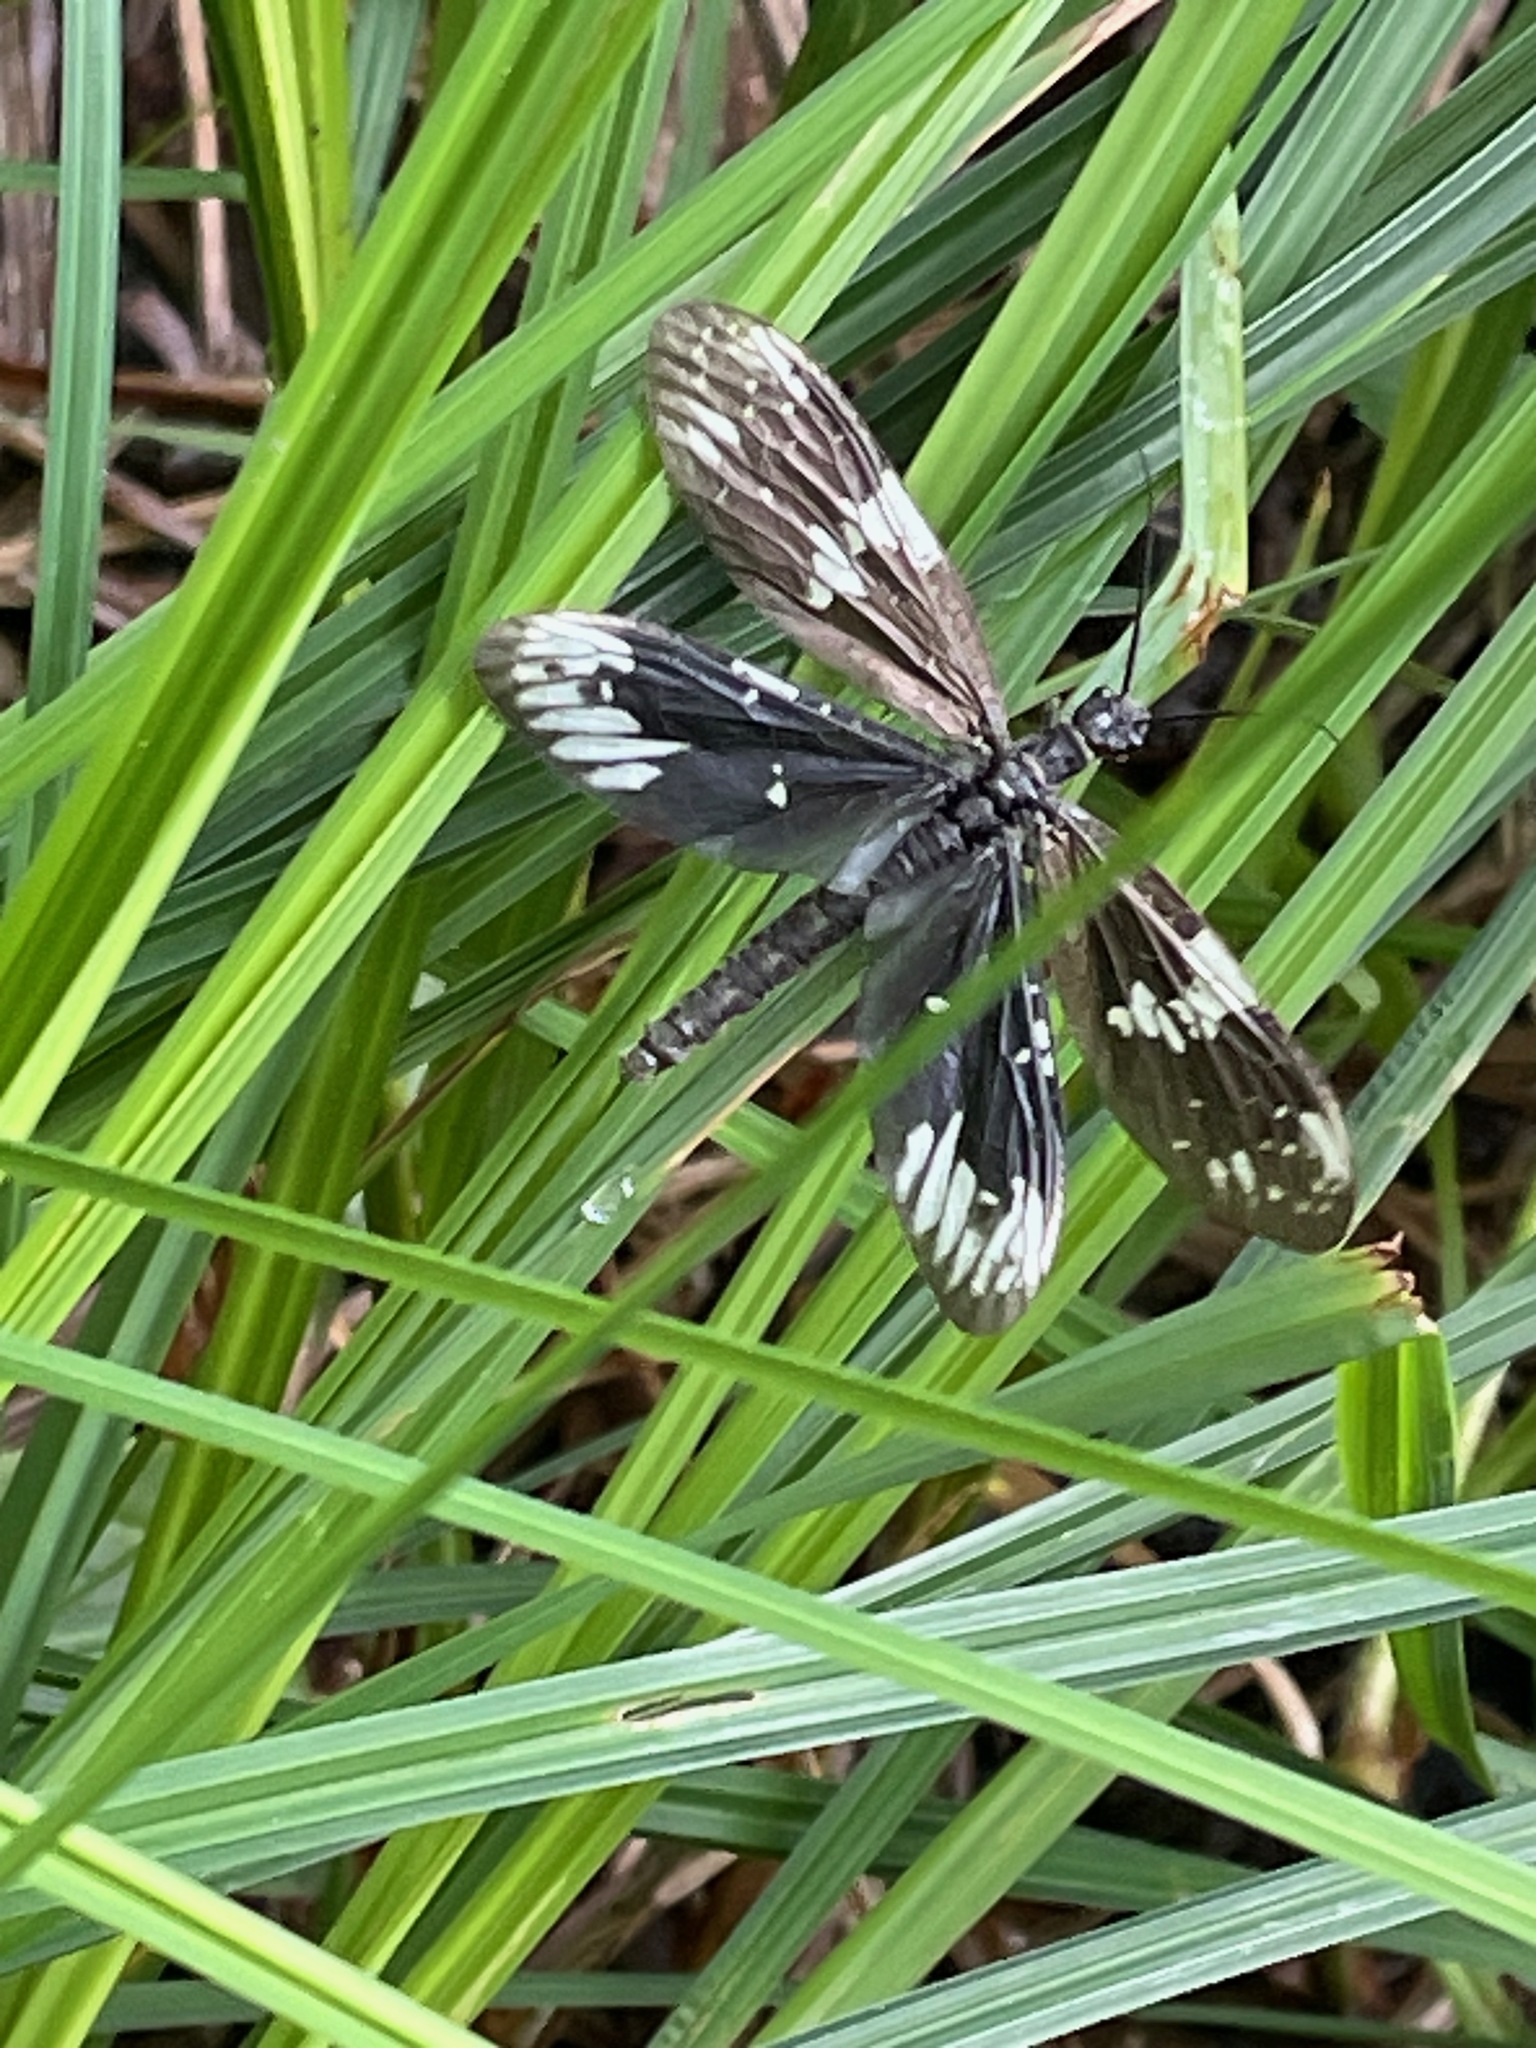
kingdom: Animalia
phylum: Arthropoda
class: Insecta
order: Megaloptera
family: Corydalidae
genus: Nigronia
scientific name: Nigronia serricornis
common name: Serrate dark fishfly
